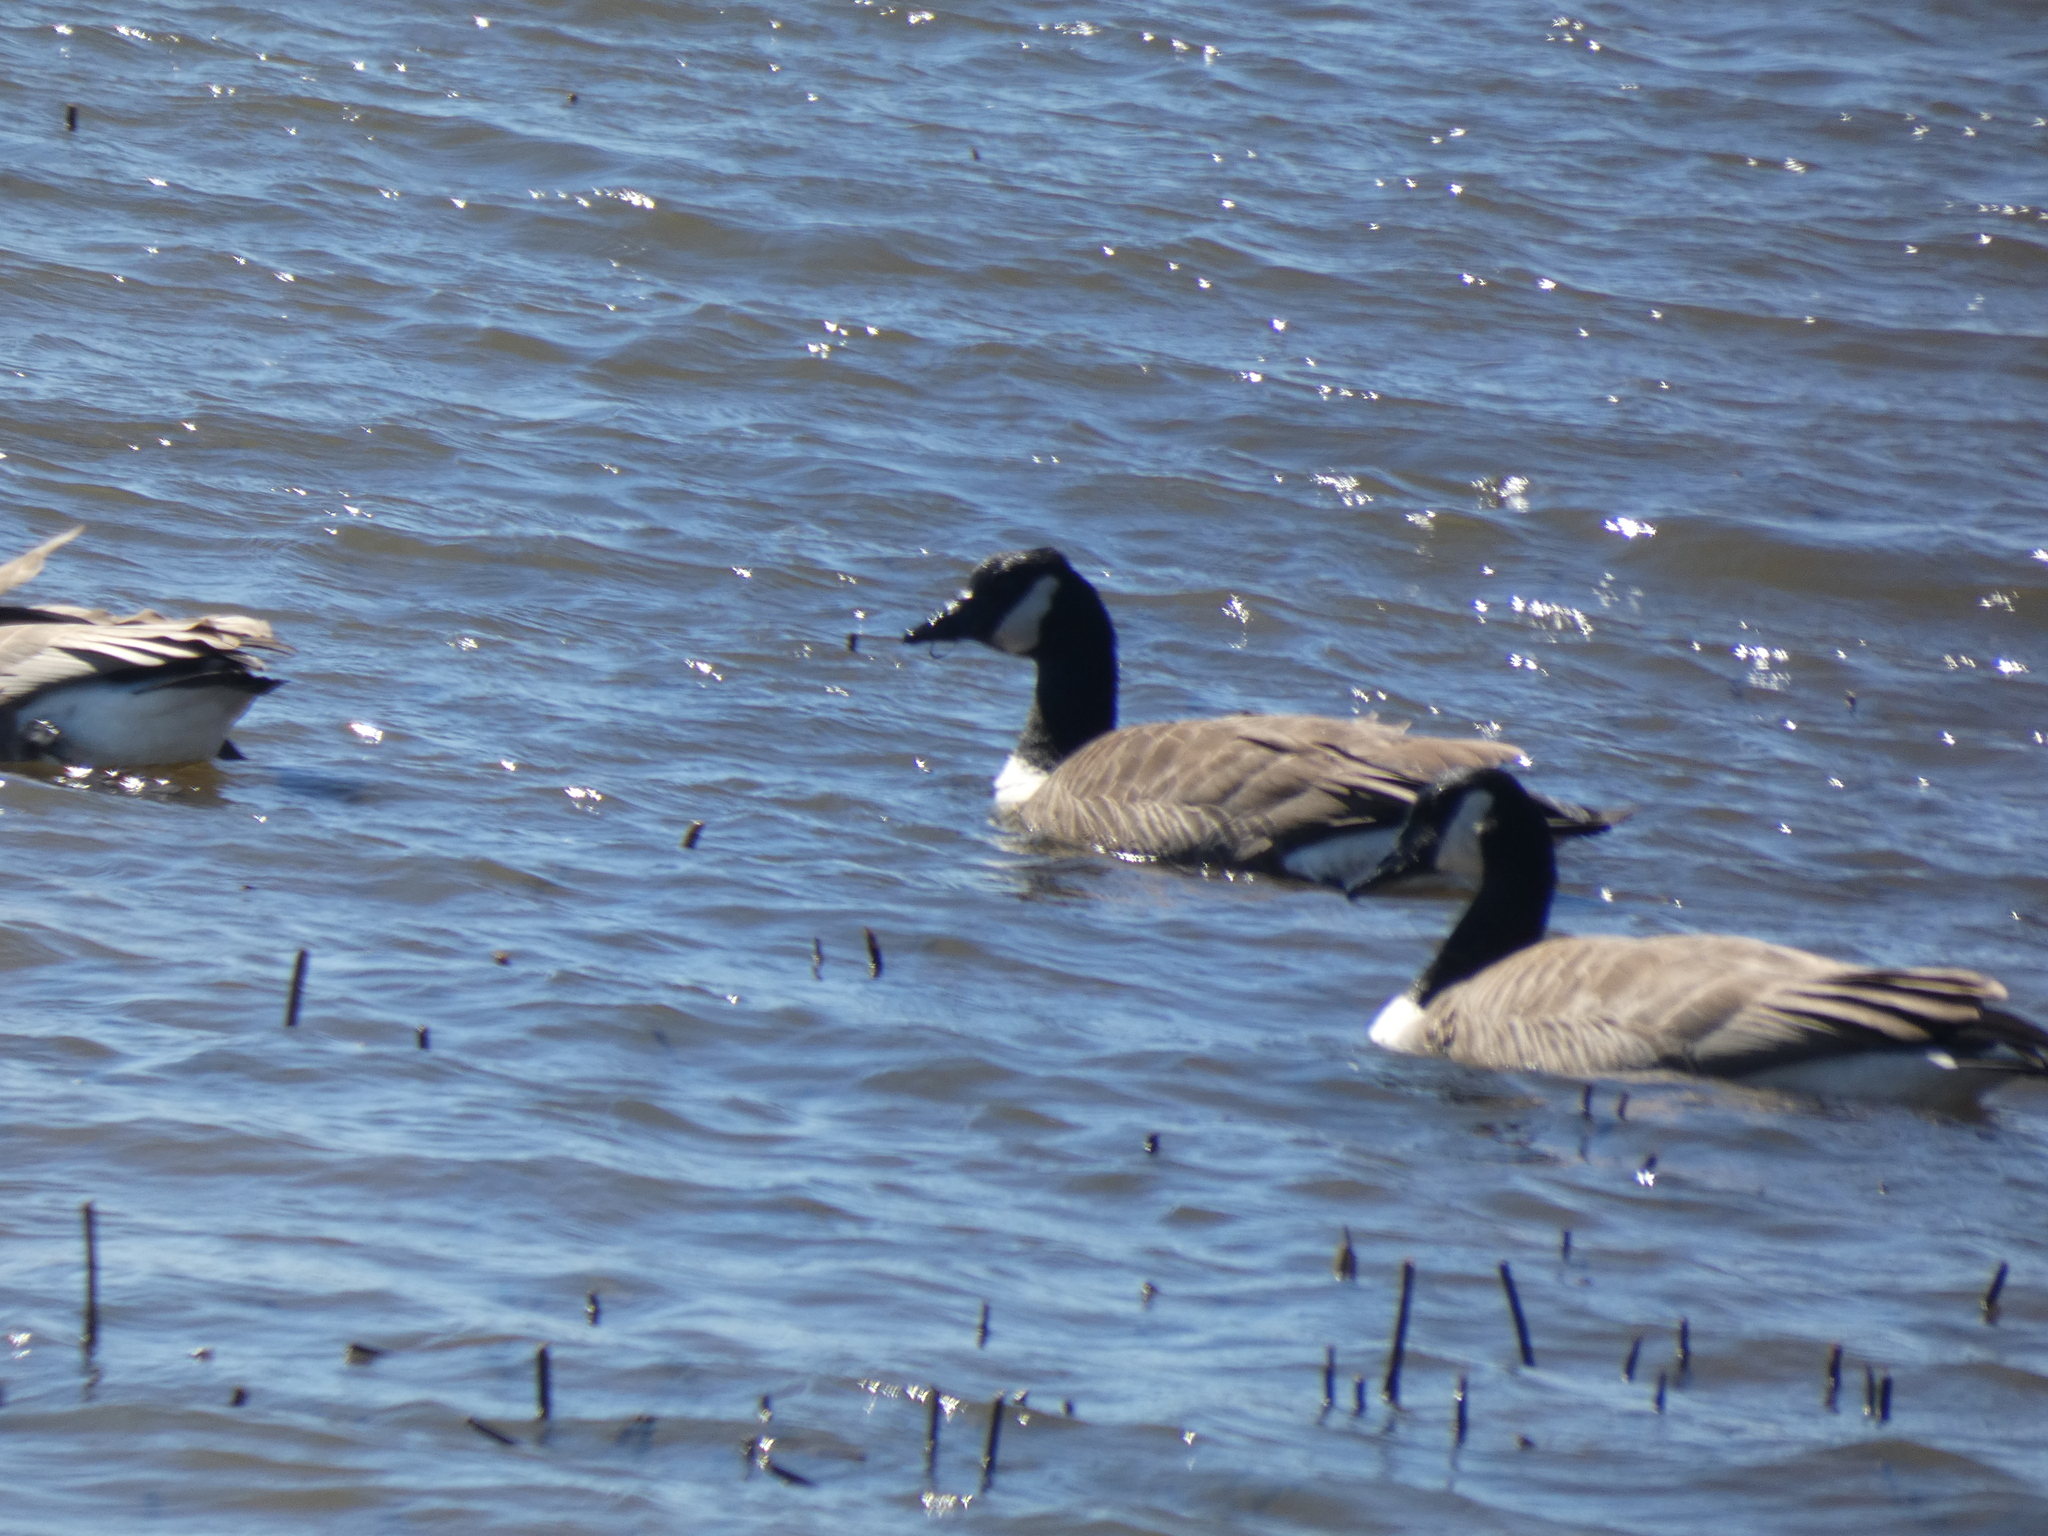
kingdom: Animalia
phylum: Chordata
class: Aves
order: Anseriformes
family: Anatidae
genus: Branta
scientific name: Branta canadensis
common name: Canada goose
